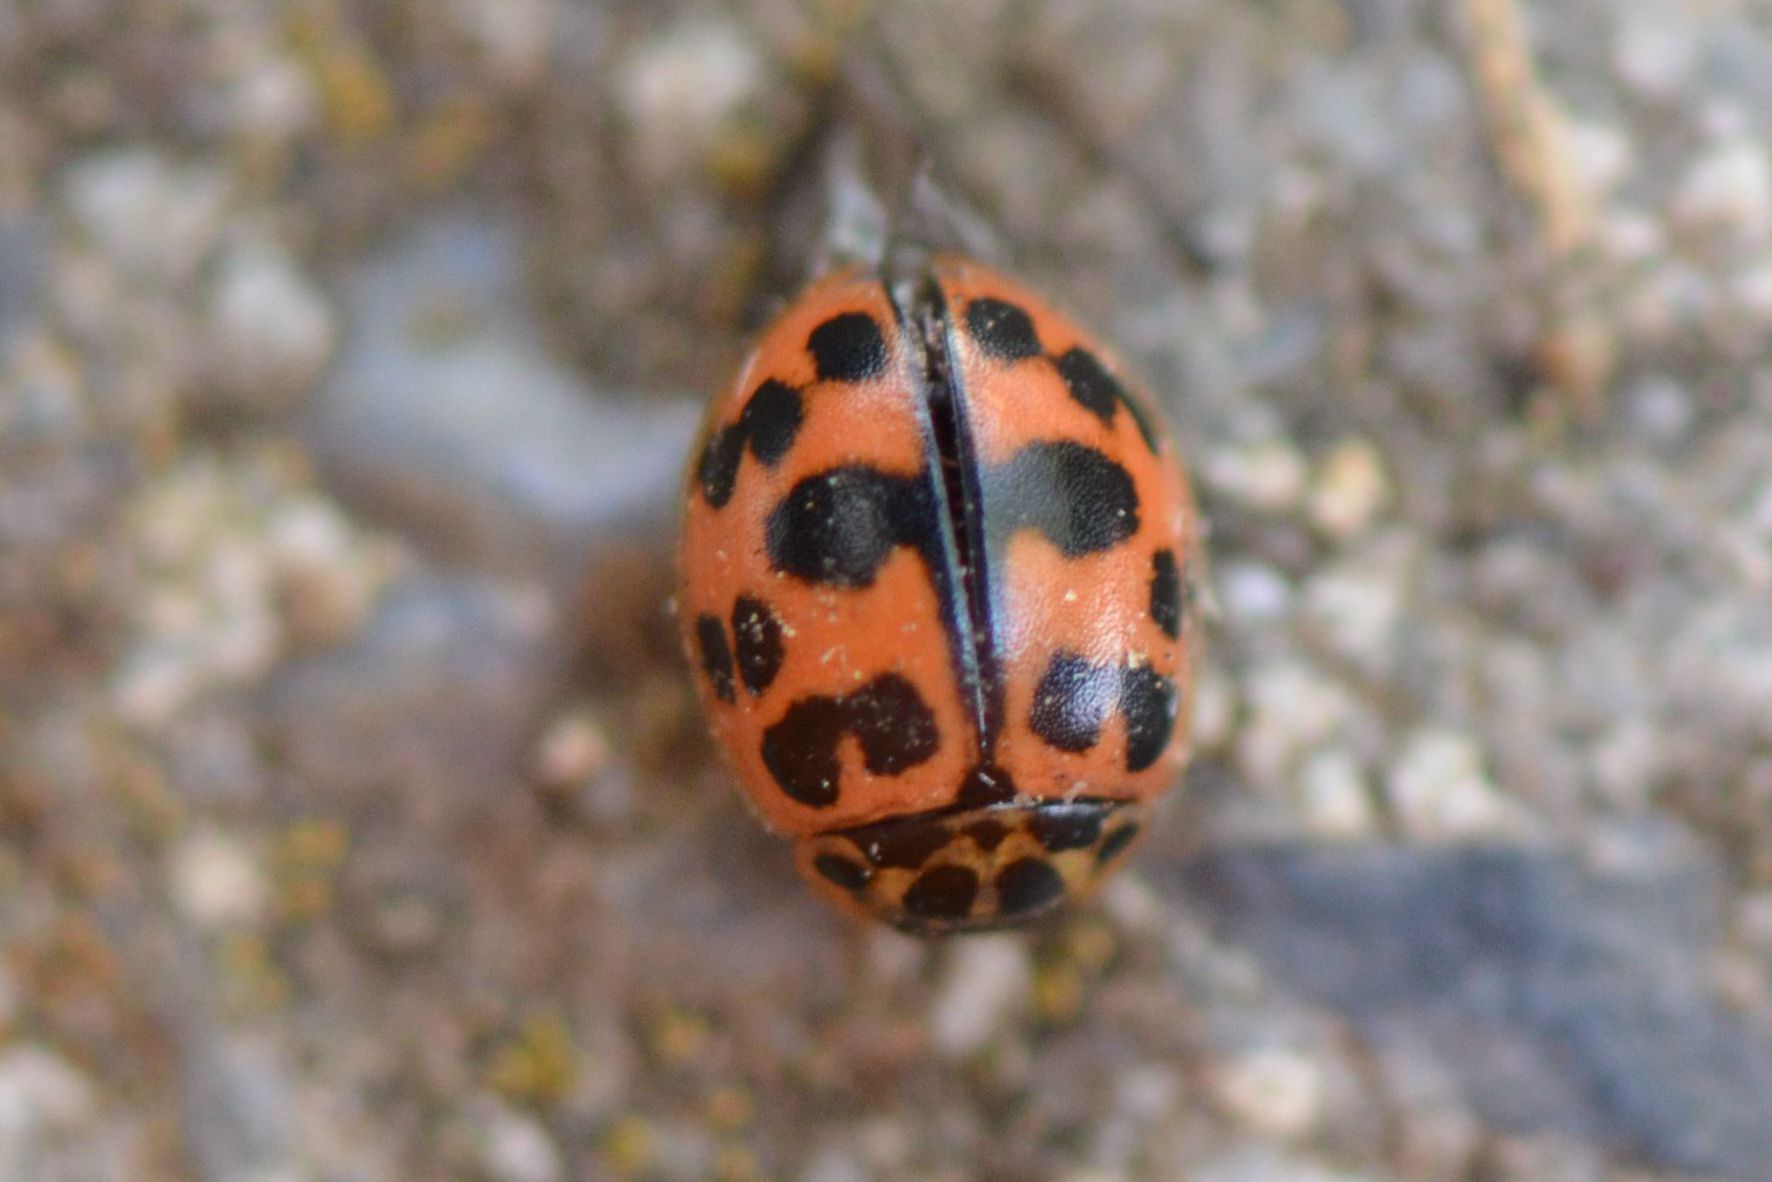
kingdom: Animalia
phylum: Arthropoda
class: Insecta
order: Coleoptera
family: Coccinellidae
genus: Oenopia
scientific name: Oenopia conglobata
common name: Ladybird beetle
